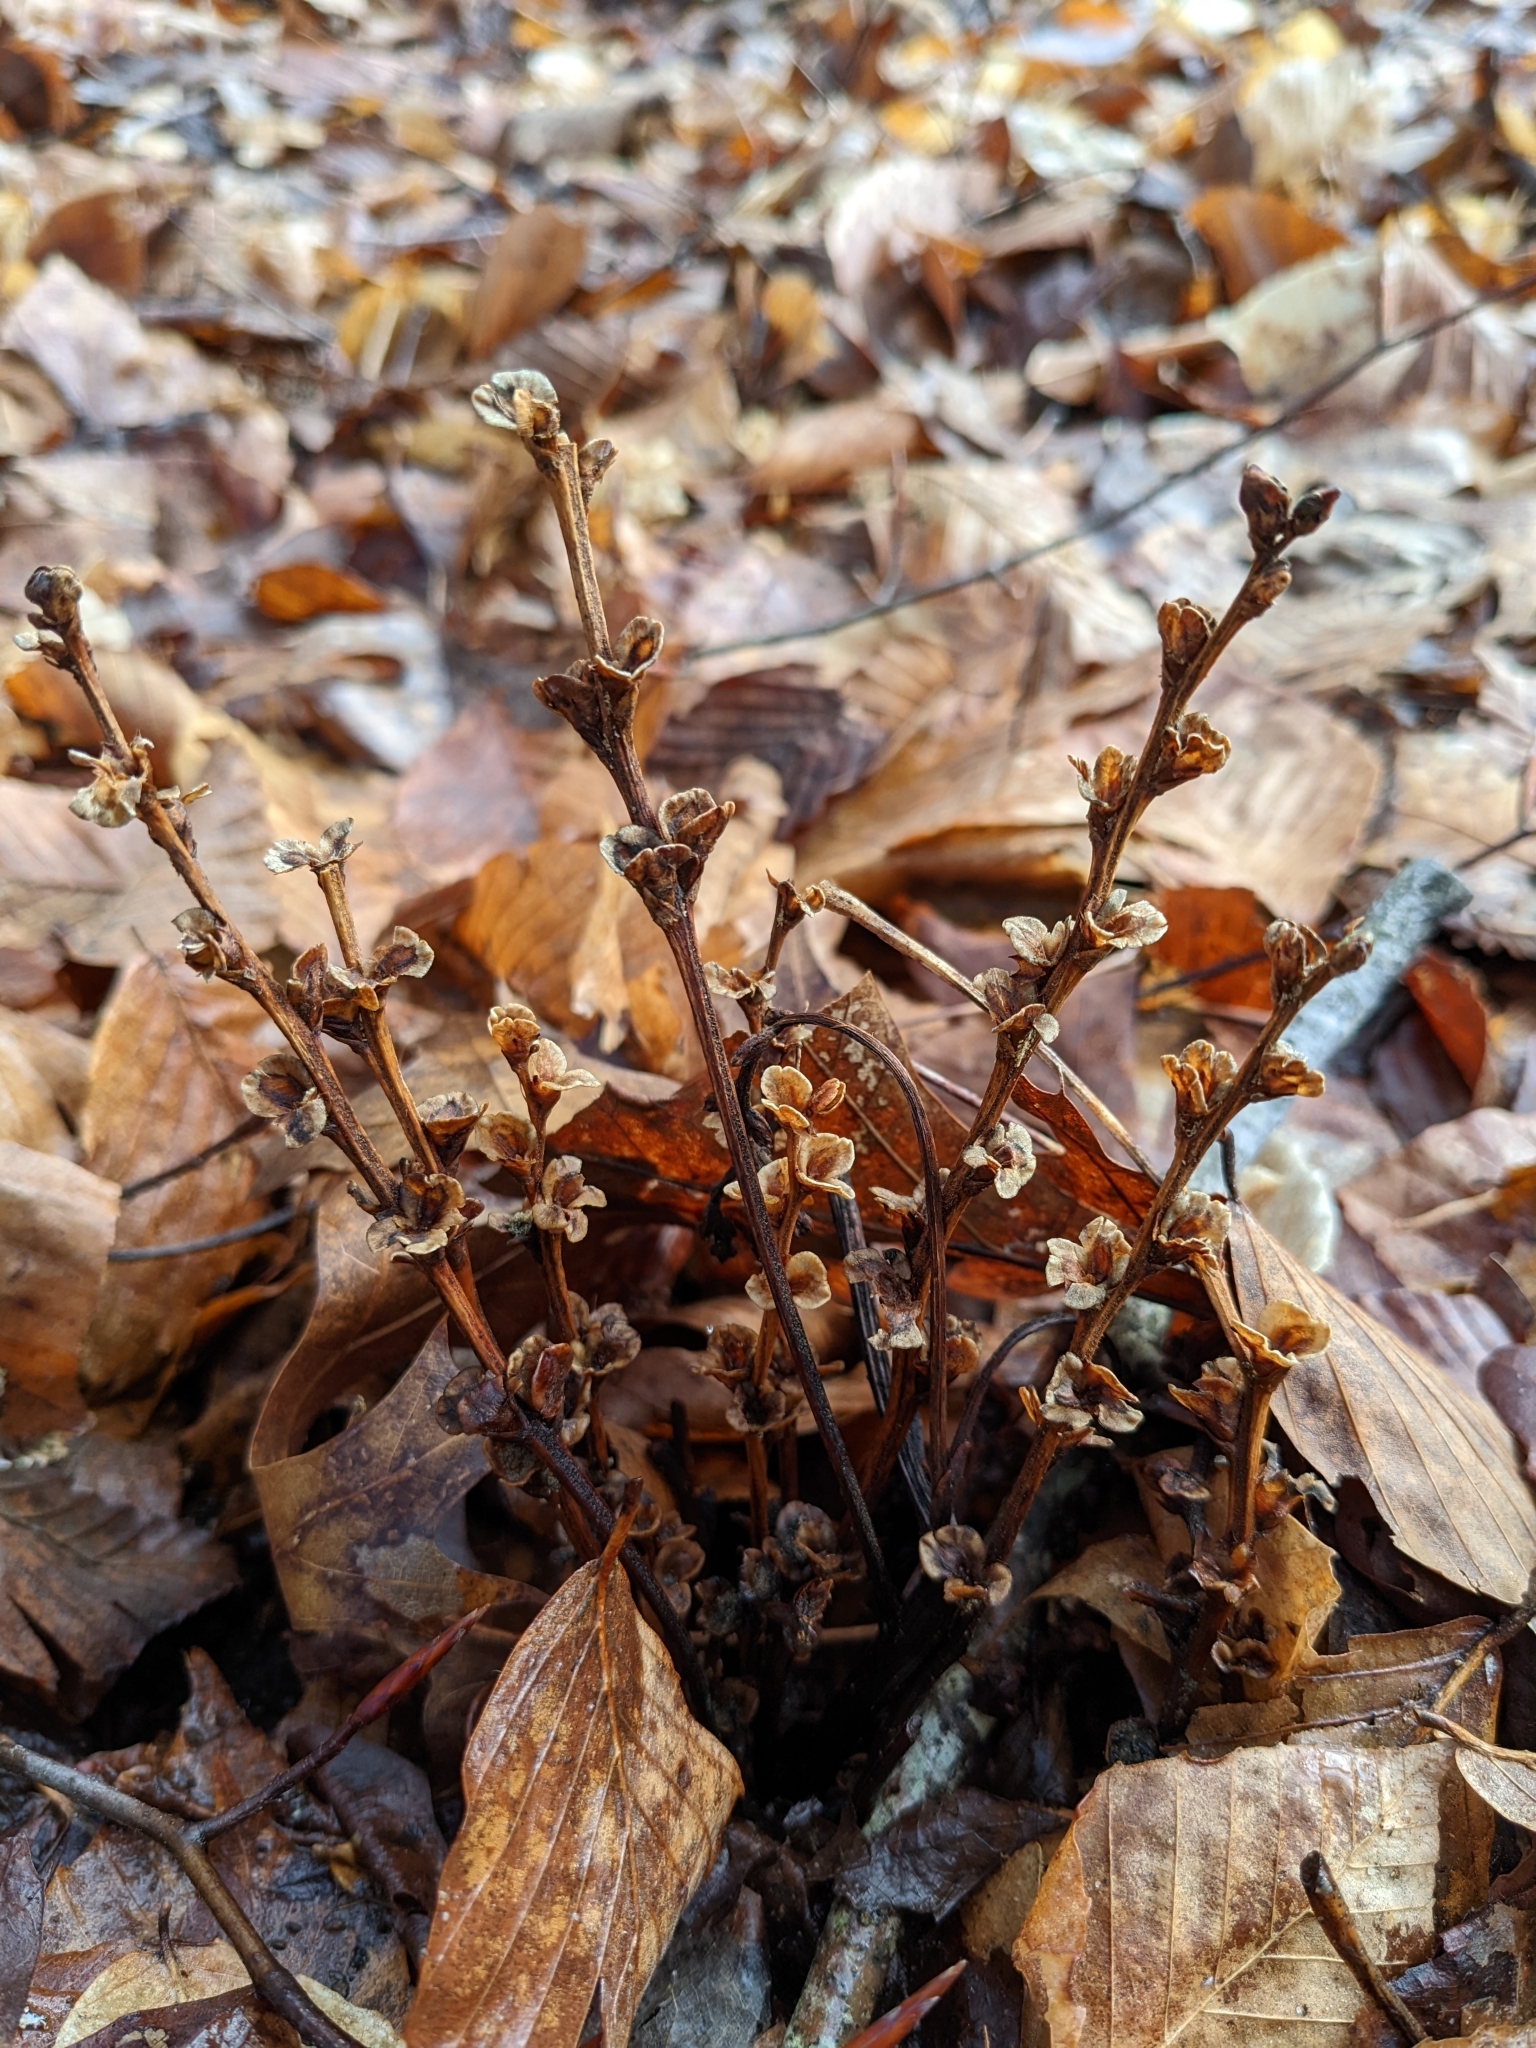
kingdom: Plantae
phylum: Tracheophyta
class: Magnoliopsida
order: Lamiales
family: Orobanchaceae
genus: Epifagus
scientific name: Epifagus virginiana
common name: Beechdrops
